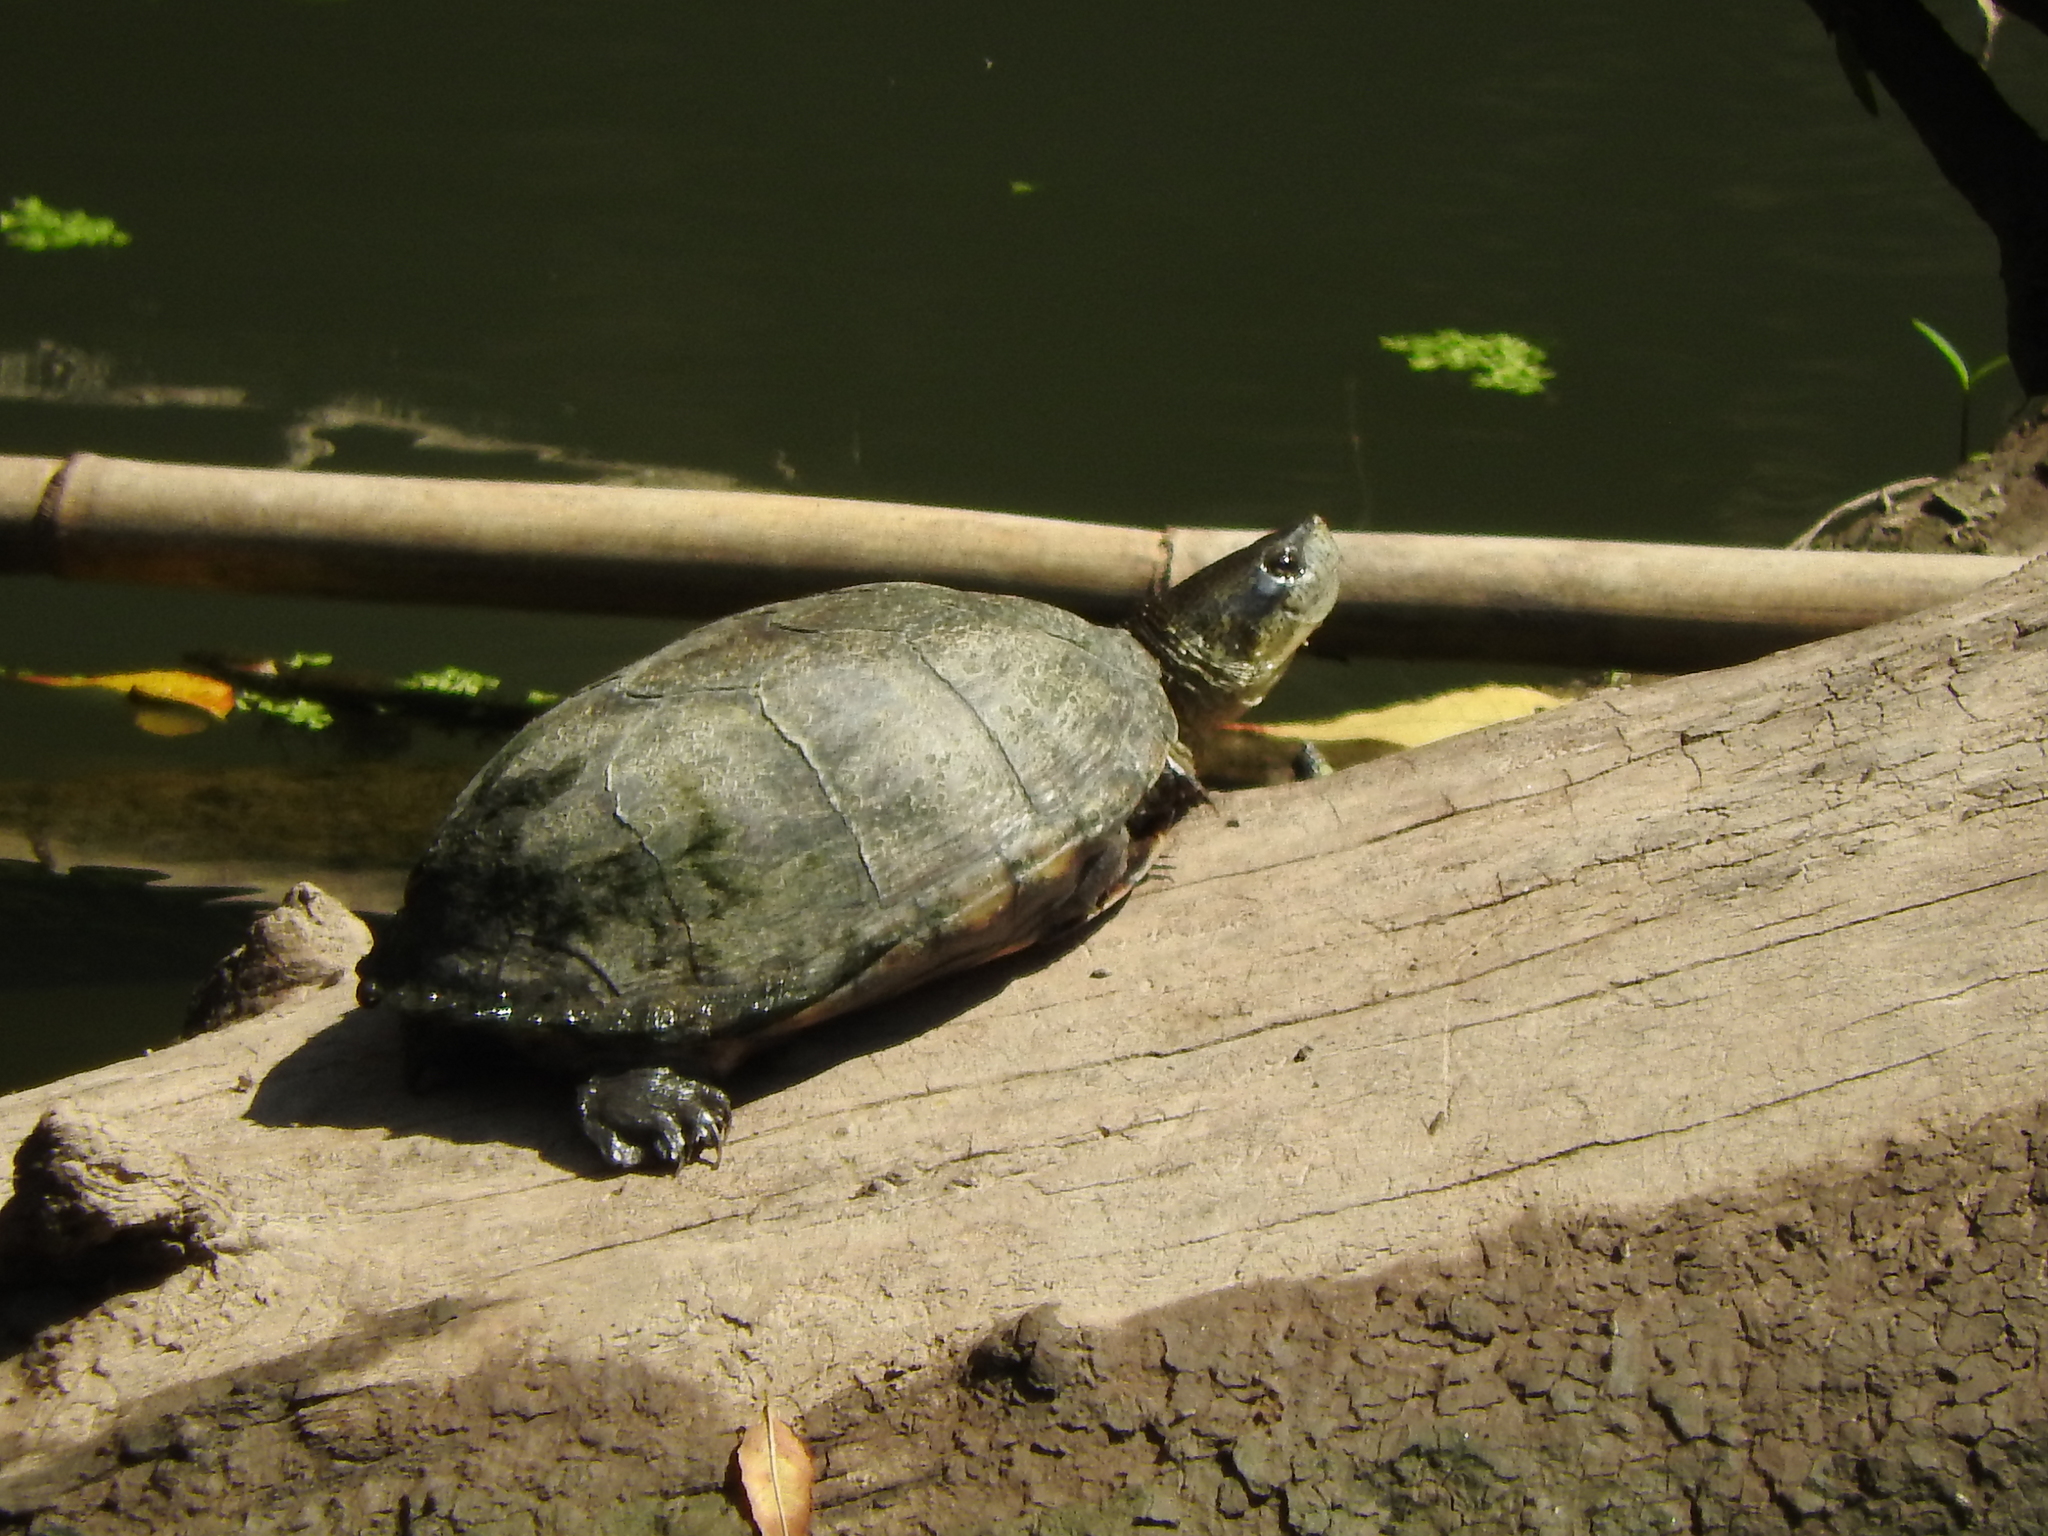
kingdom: Animalia
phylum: Chordata
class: Testudines
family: Kinosternidae
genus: Kinosternon
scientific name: Kinosternon integrum
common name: Mexican mud turtle
